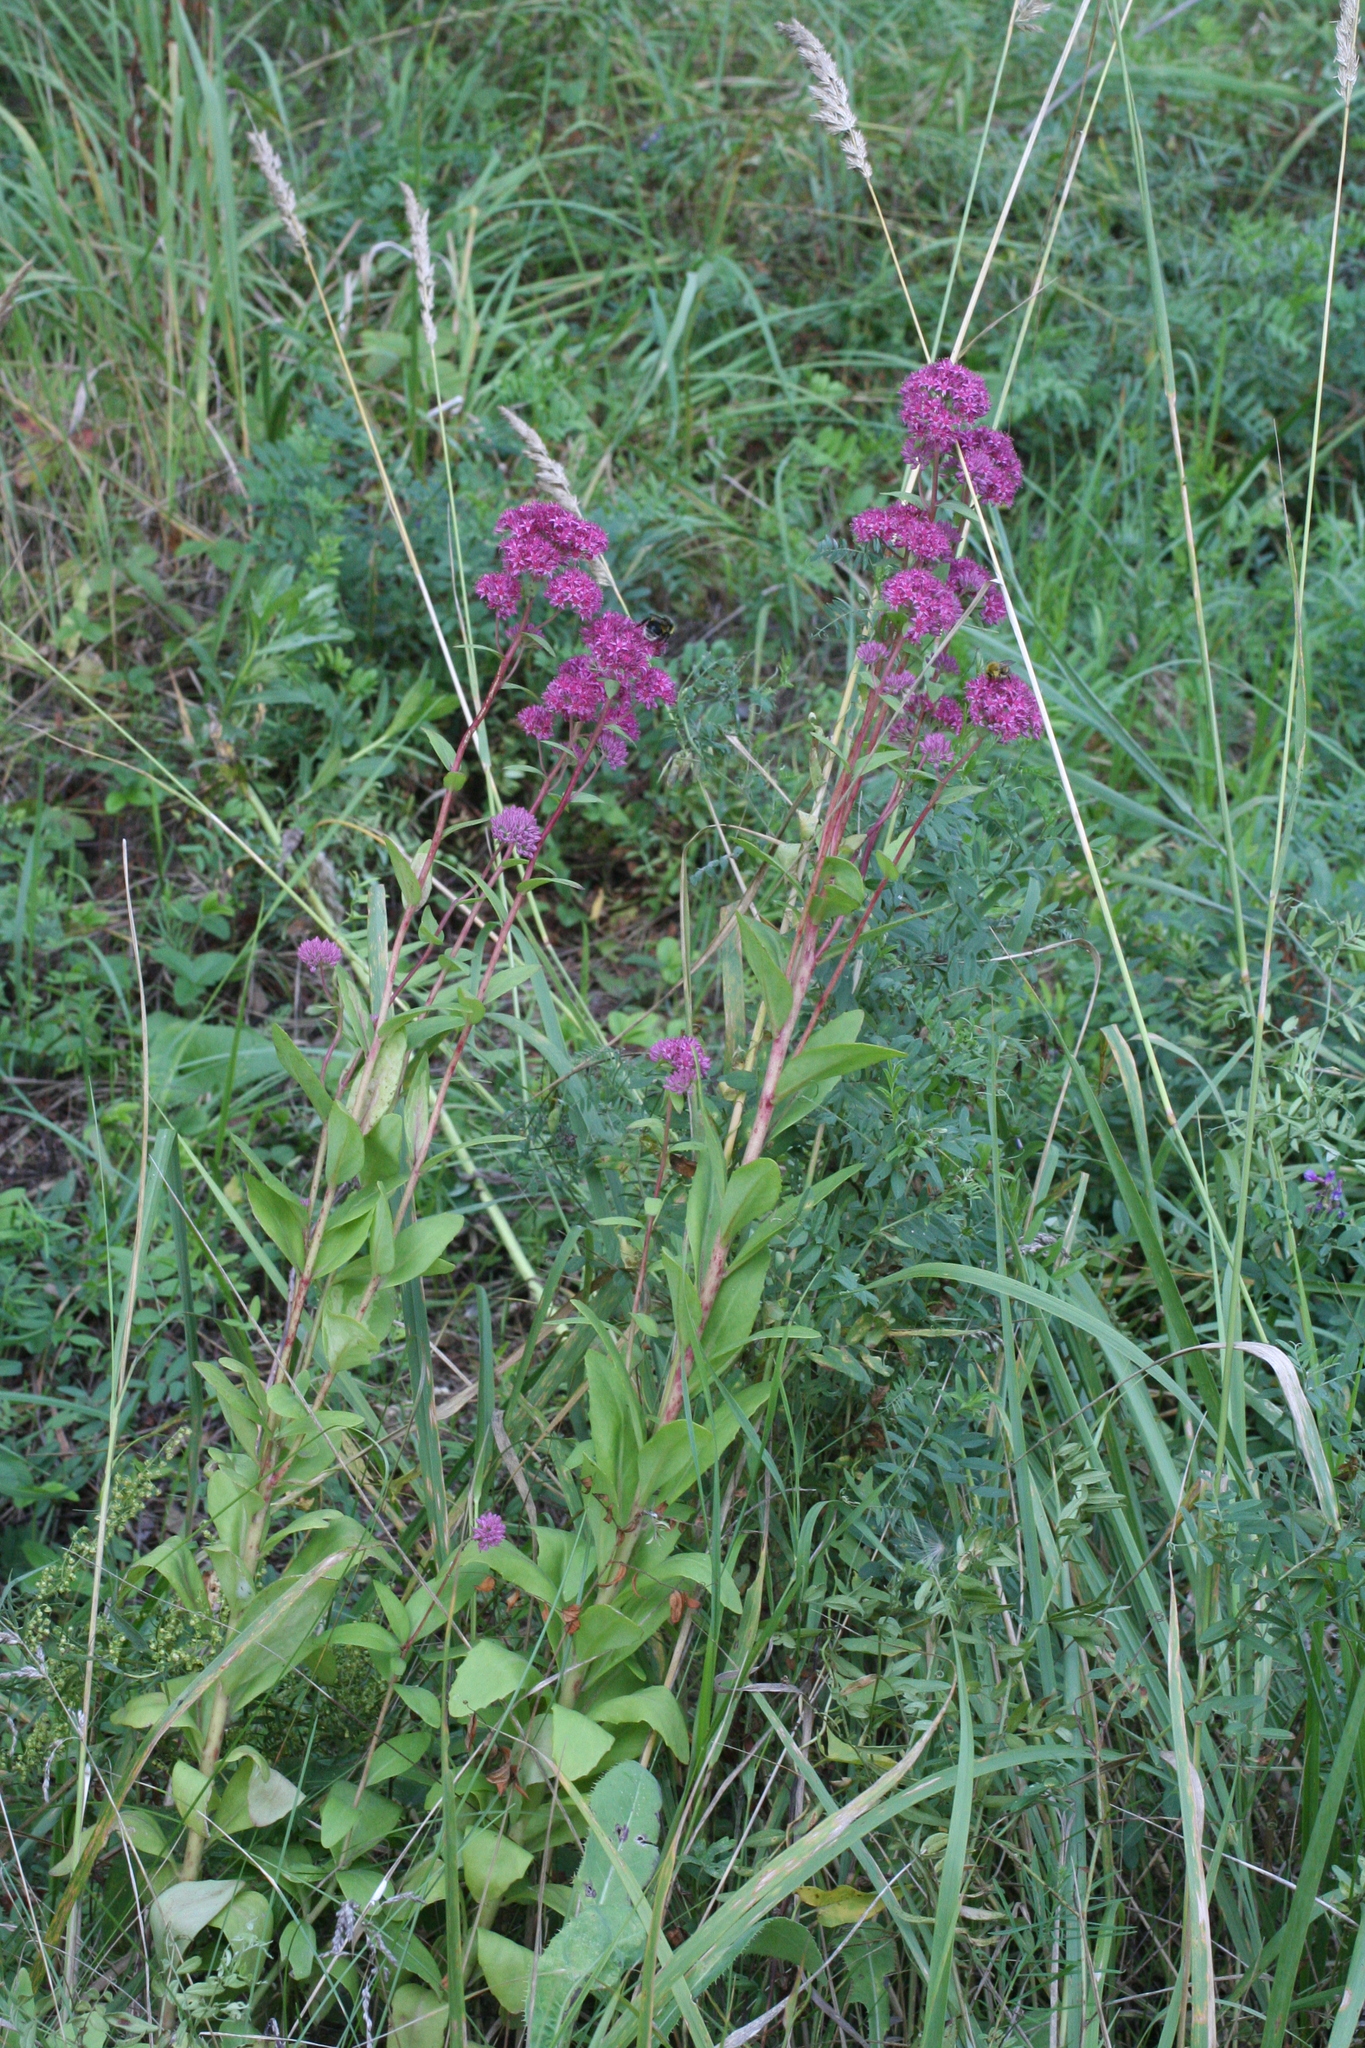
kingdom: Plantae
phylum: Tracheophyta
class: Magnoliopsida
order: Saxifragales
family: Crassulaceae
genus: Hylotelephium
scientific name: Hylotelephium telephium
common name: Live-forever
